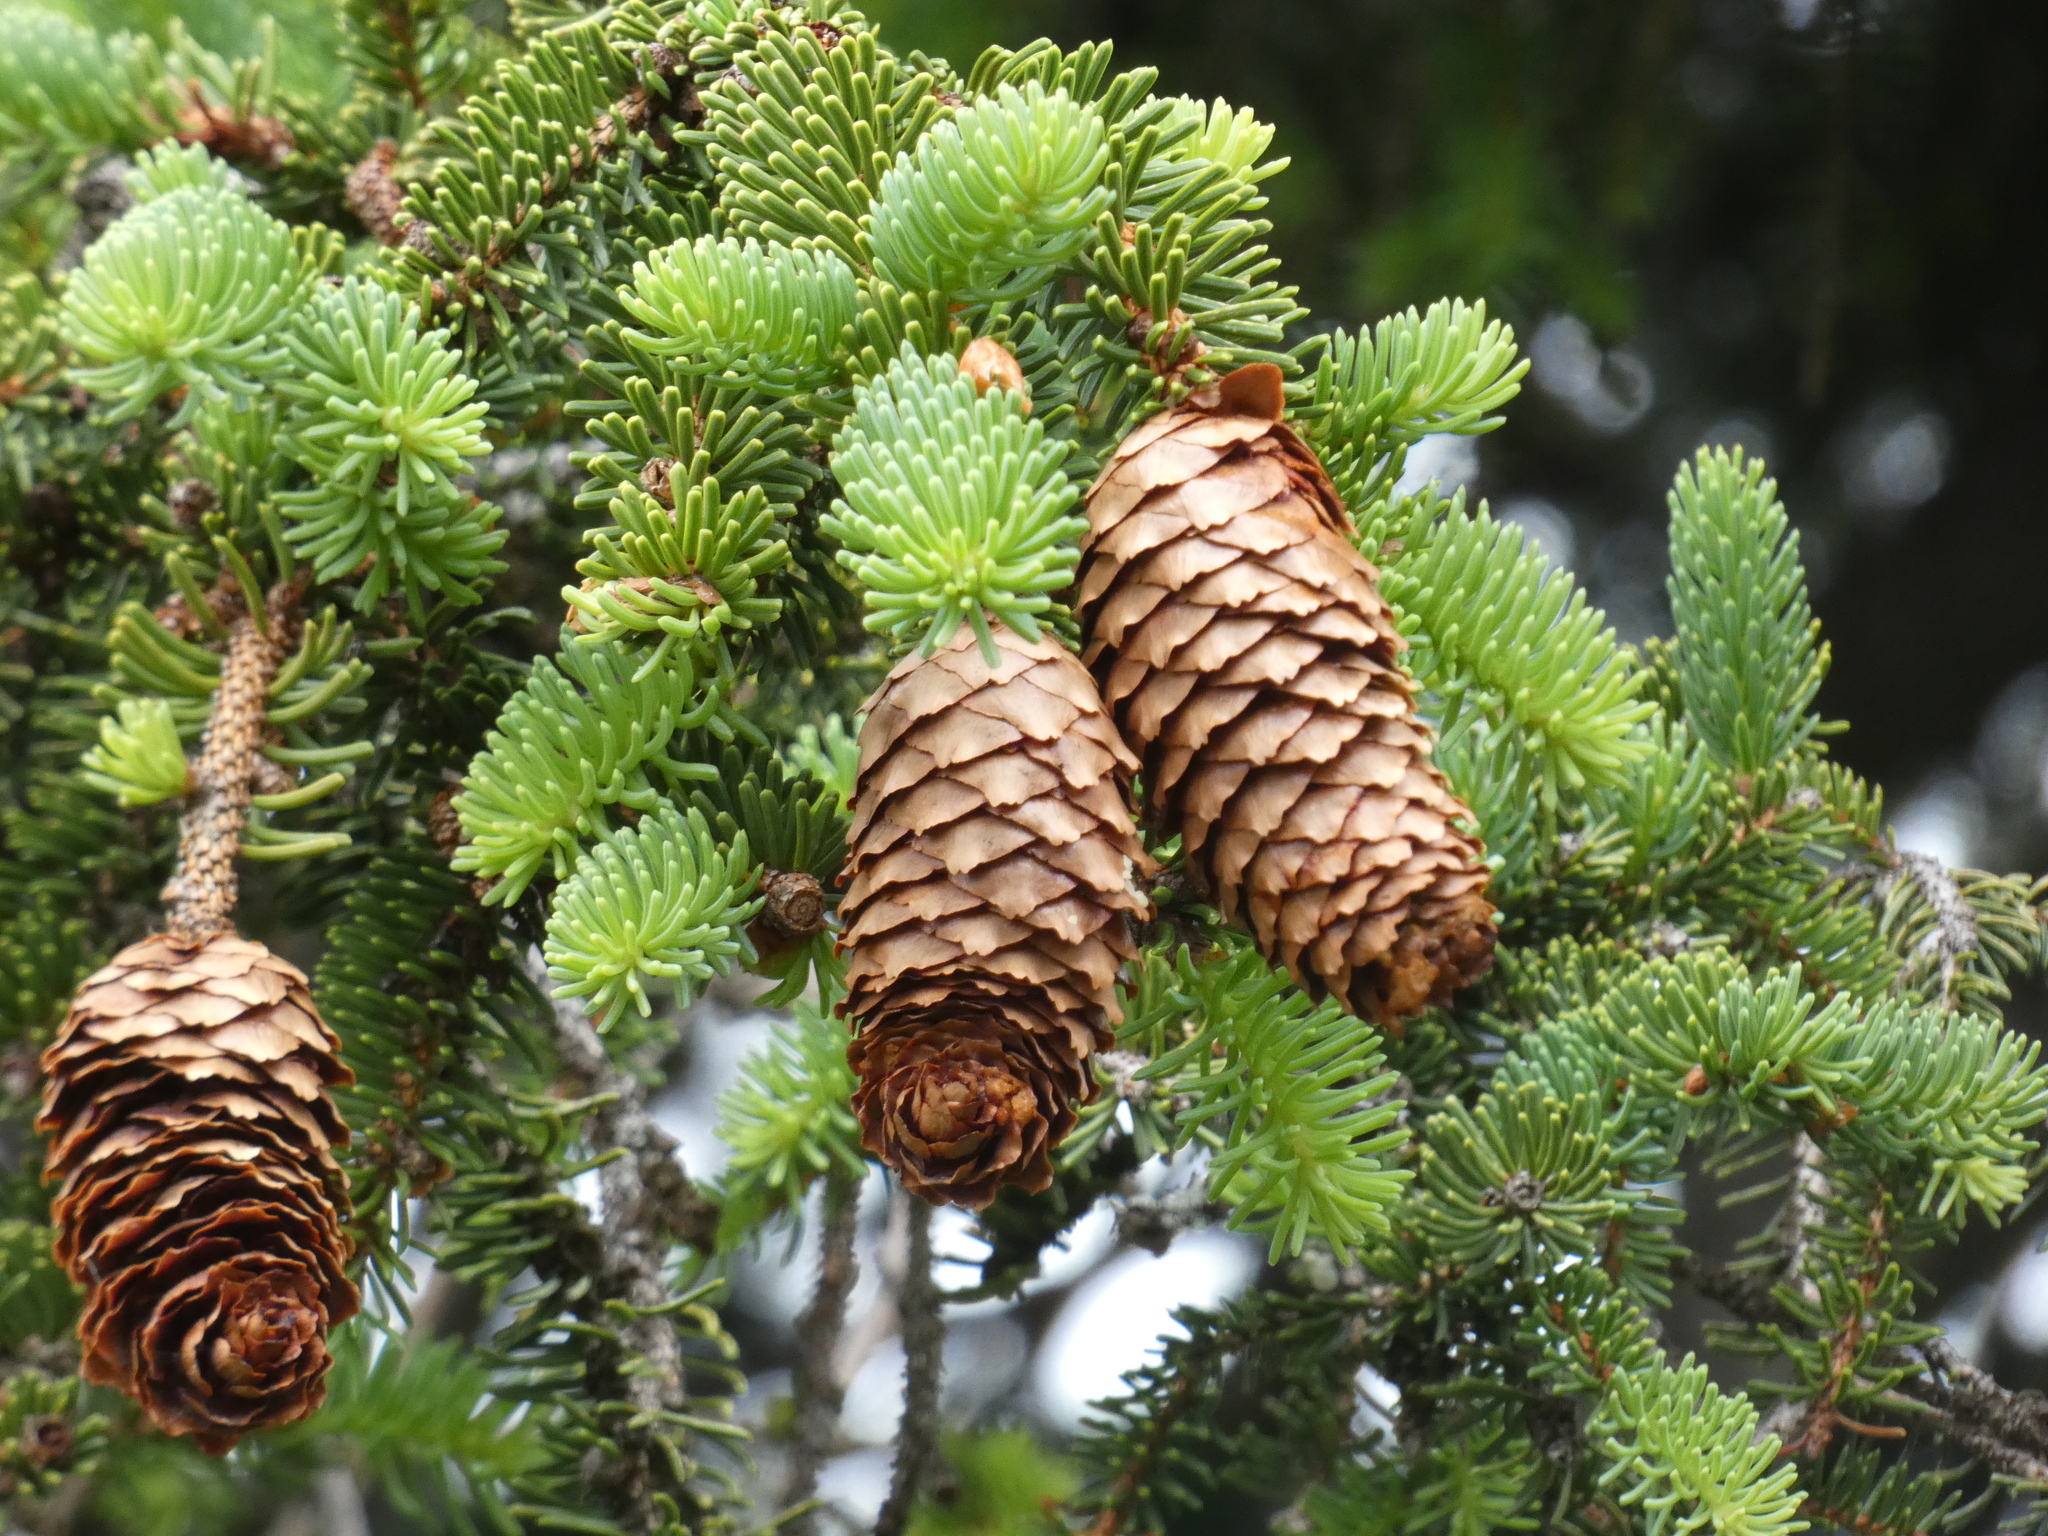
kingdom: Plantae
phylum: Tracheophyta
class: Pinopsida
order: Pinales
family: Pinaceae
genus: Picea
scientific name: Picea abies
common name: Norway spruce
